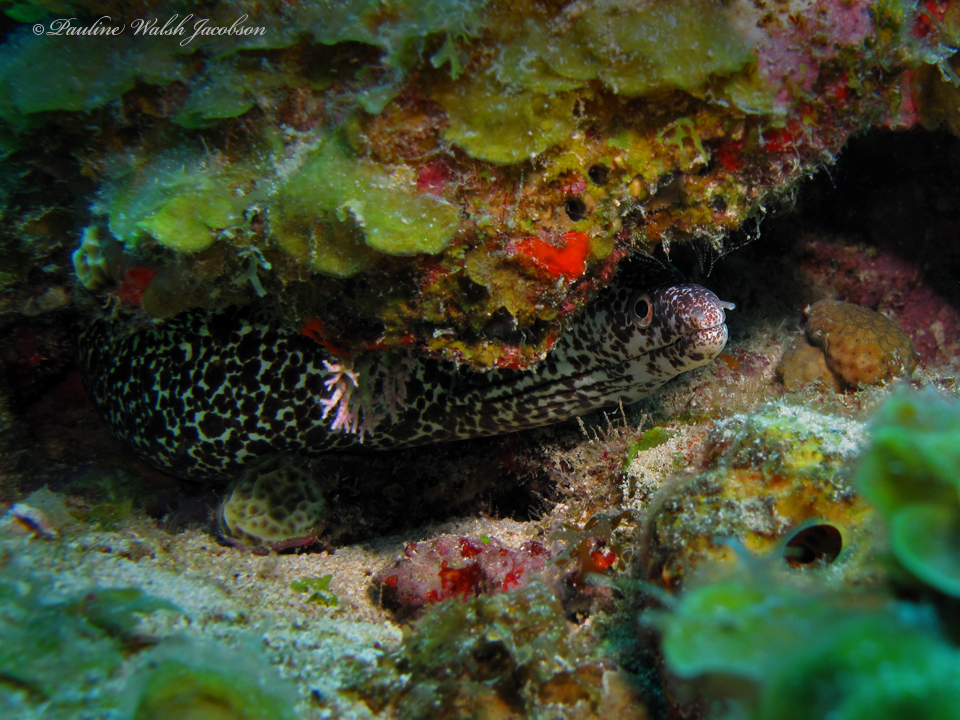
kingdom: Animalia
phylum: Chordata
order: Anguilliformes
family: Muraenidae
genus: Gymnothorax
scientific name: Gymnothorax moringa
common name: Spotted moray
